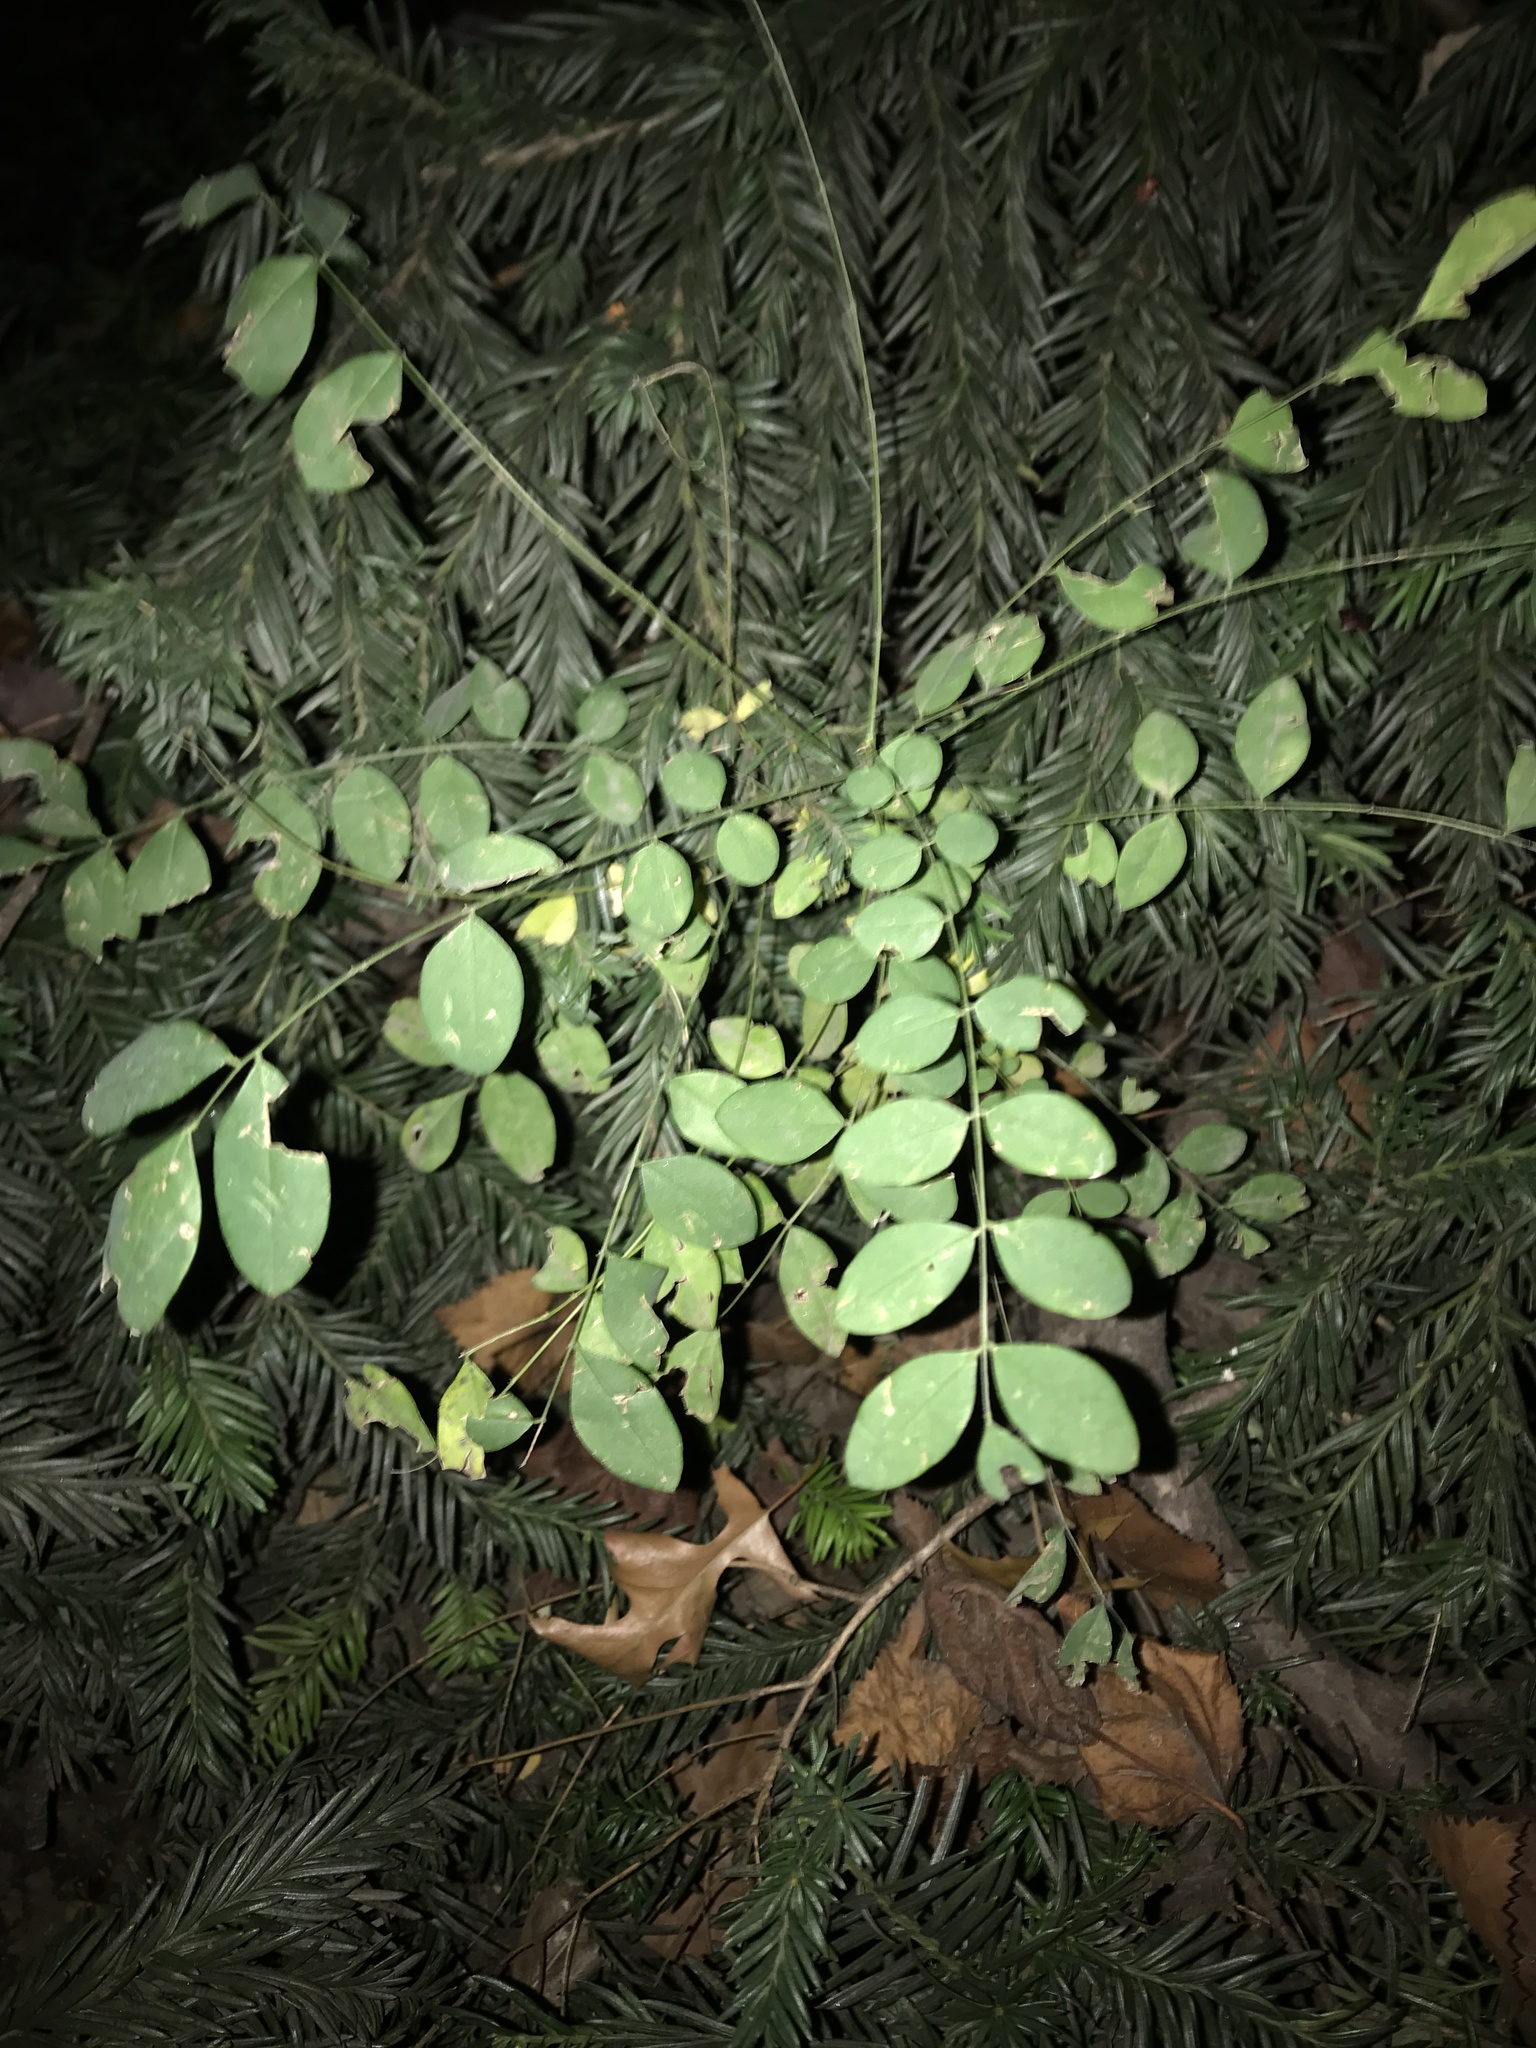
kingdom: Plantae
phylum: Tracheophyta
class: Magnoliopsida
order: Fabales
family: Fabaceae
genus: Styphnolobium
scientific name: Styphnolobium japonicum
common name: Chinese scholartree
